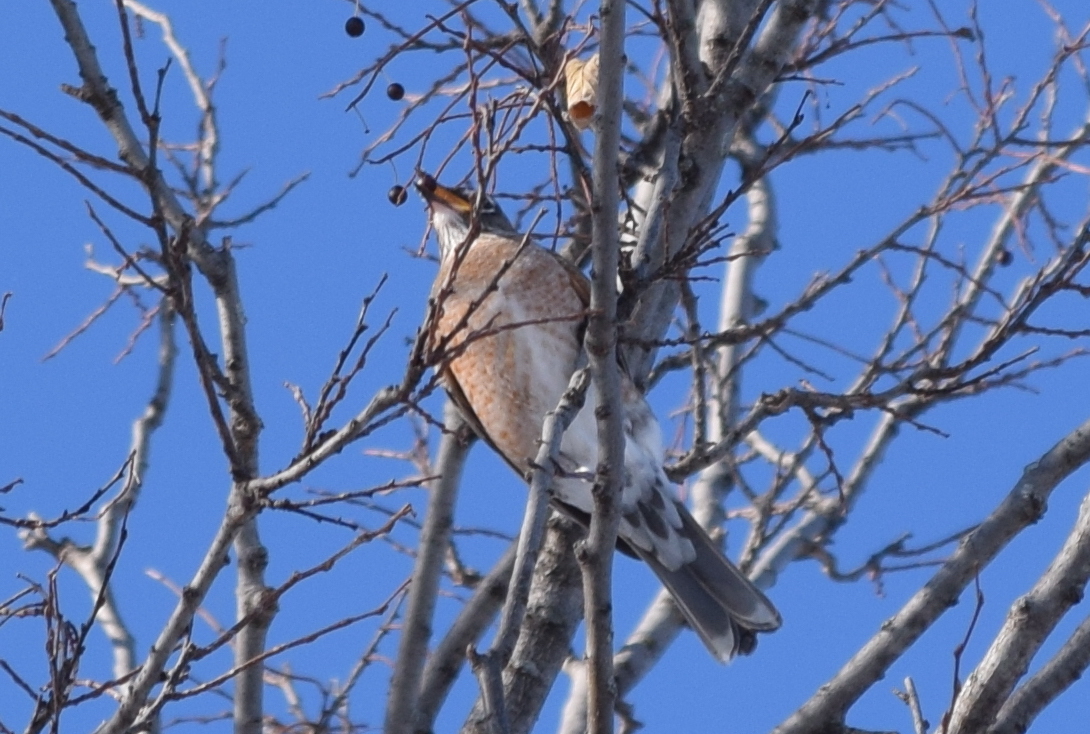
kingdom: Animalia
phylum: Chordata
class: Aves
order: Passeriformes
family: Turdidae
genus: Turdus
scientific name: Turdus migratorius
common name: American robin
